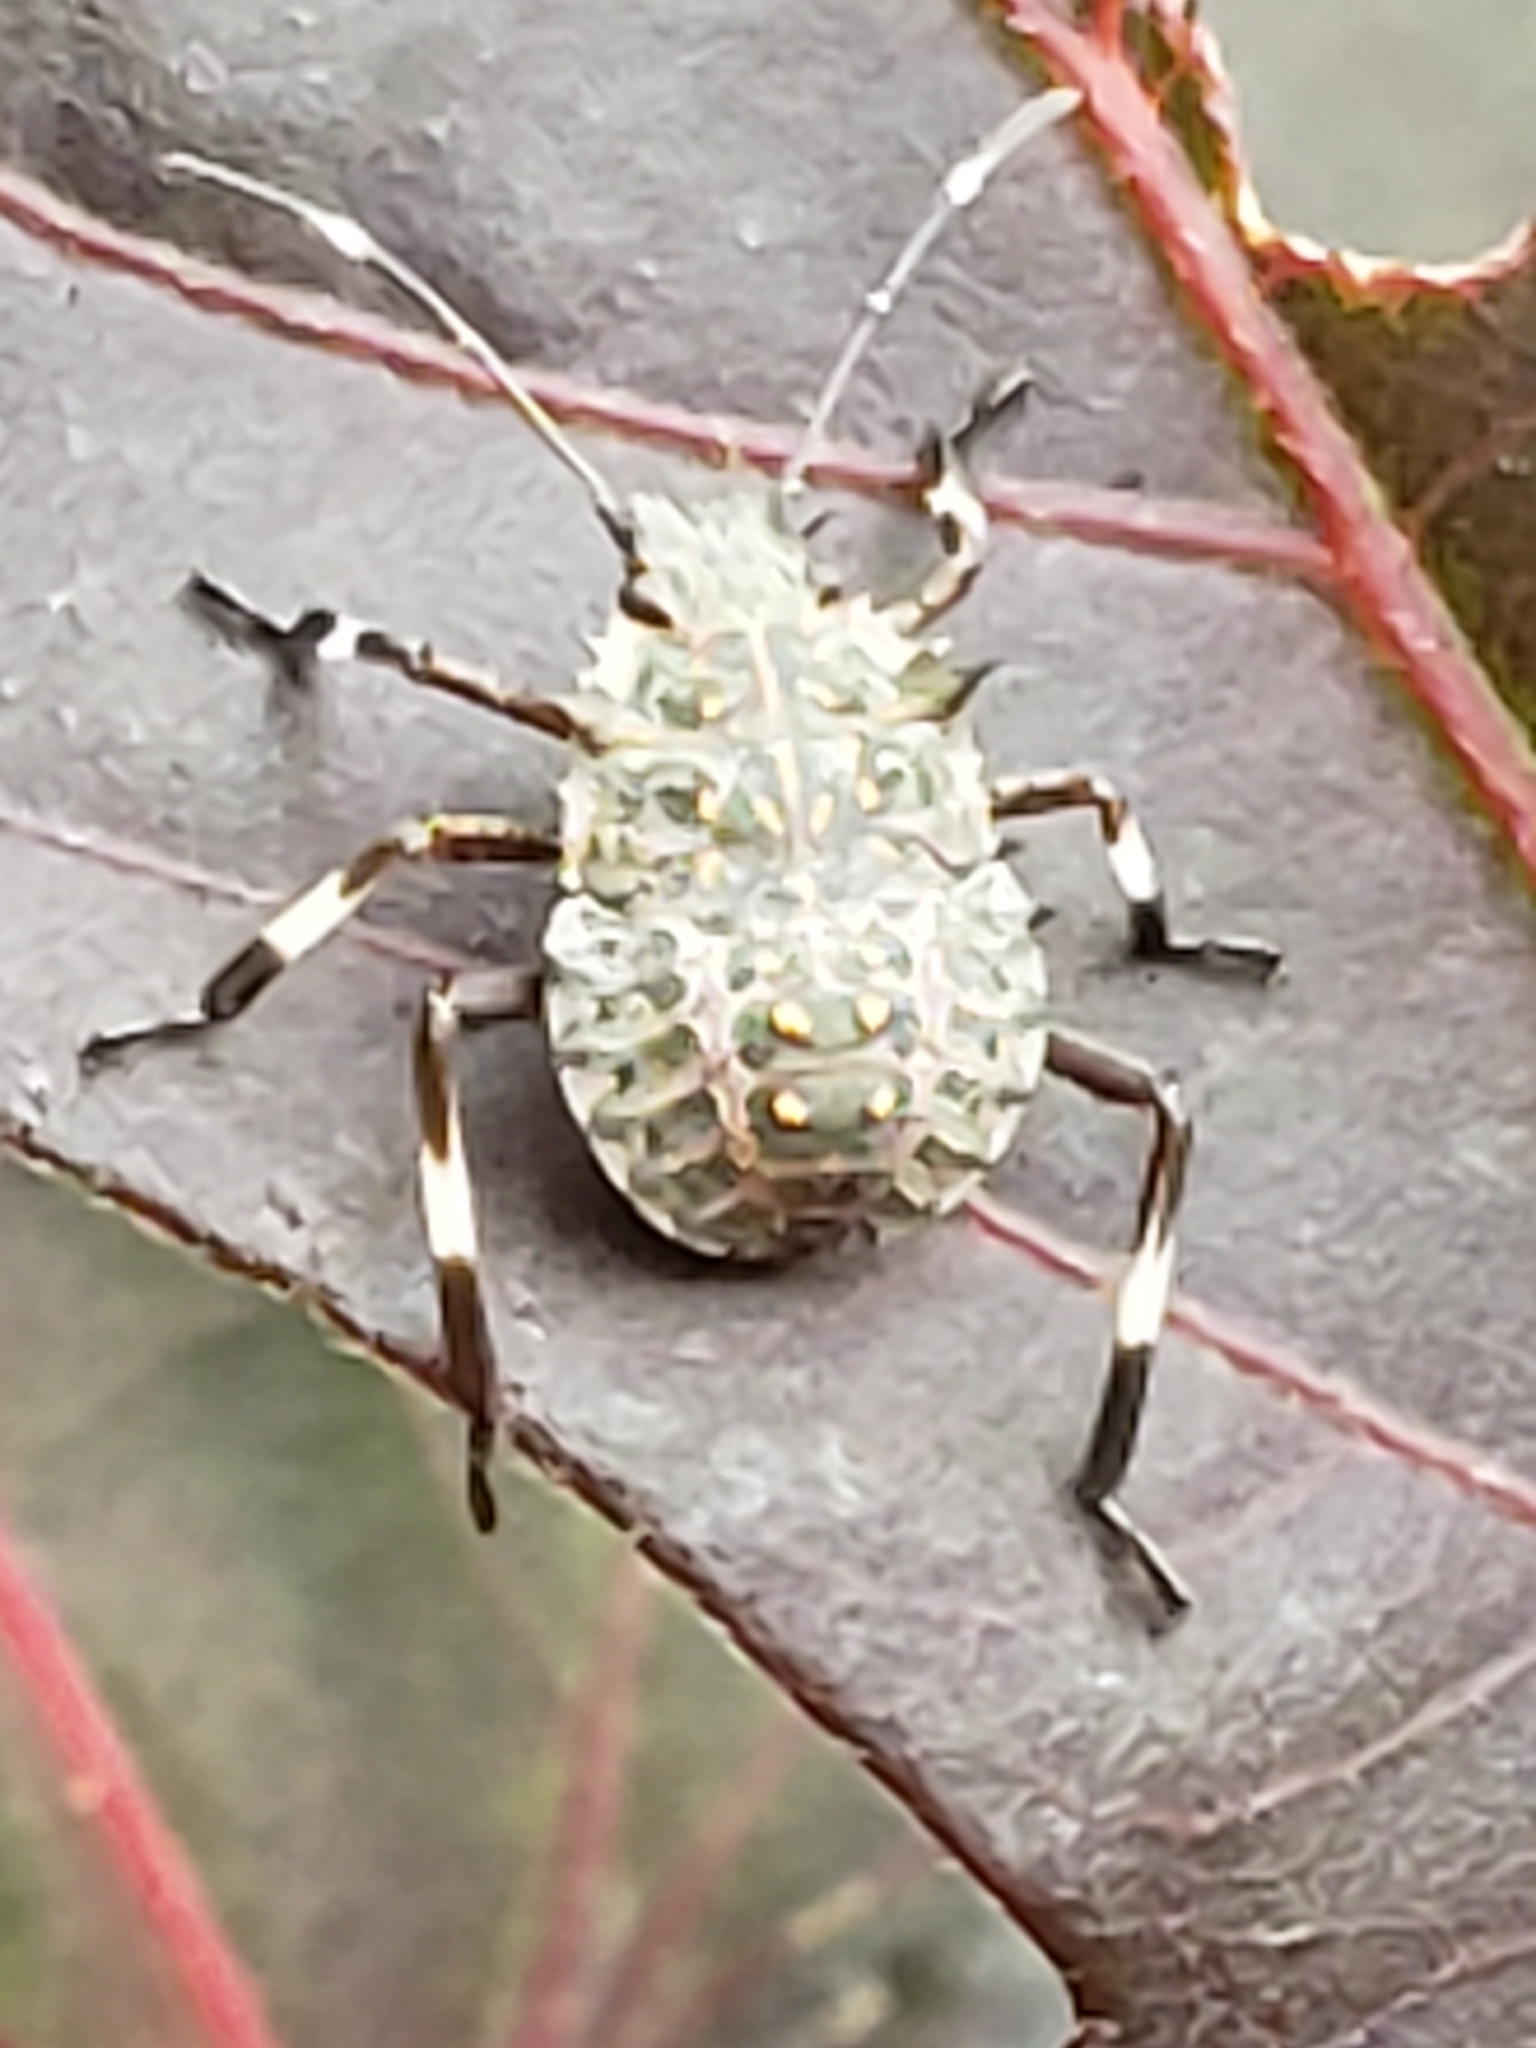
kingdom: Animalia
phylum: Arthropoda
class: Insecta
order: Hemiptera
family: Pentatomidae
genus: Halyomorpha
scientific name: Halyomorpha halys
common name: Brown marmorated stink bug
